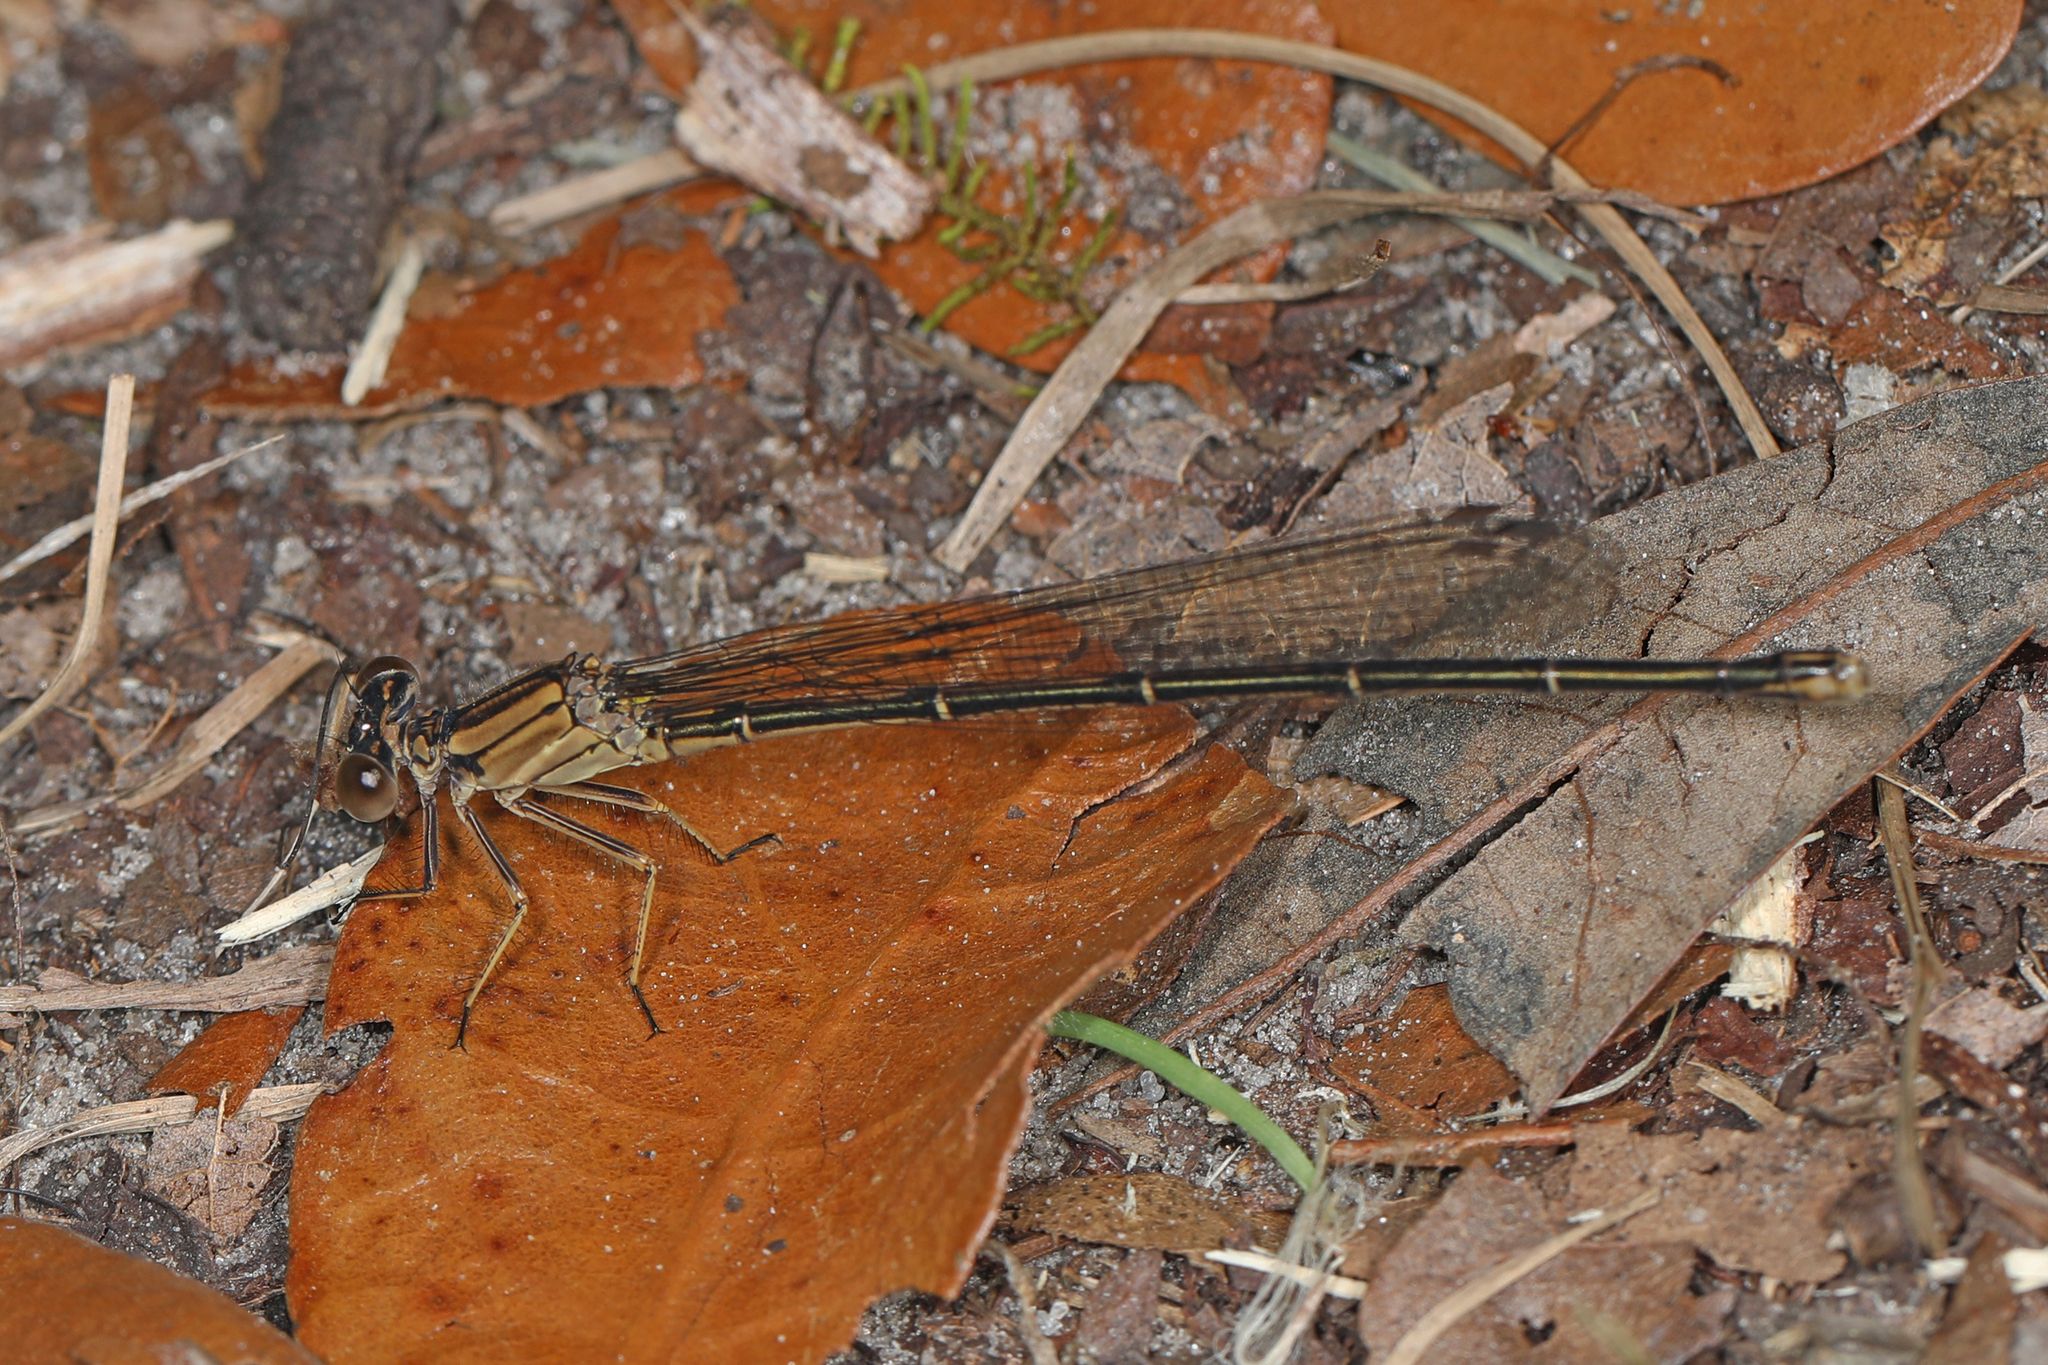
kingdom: Animalia
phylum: Arthropoda
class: Insecta
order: Odonata
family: Coenagrionidae
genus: Argia
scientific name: Argia moesta
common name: Powdered dancer
